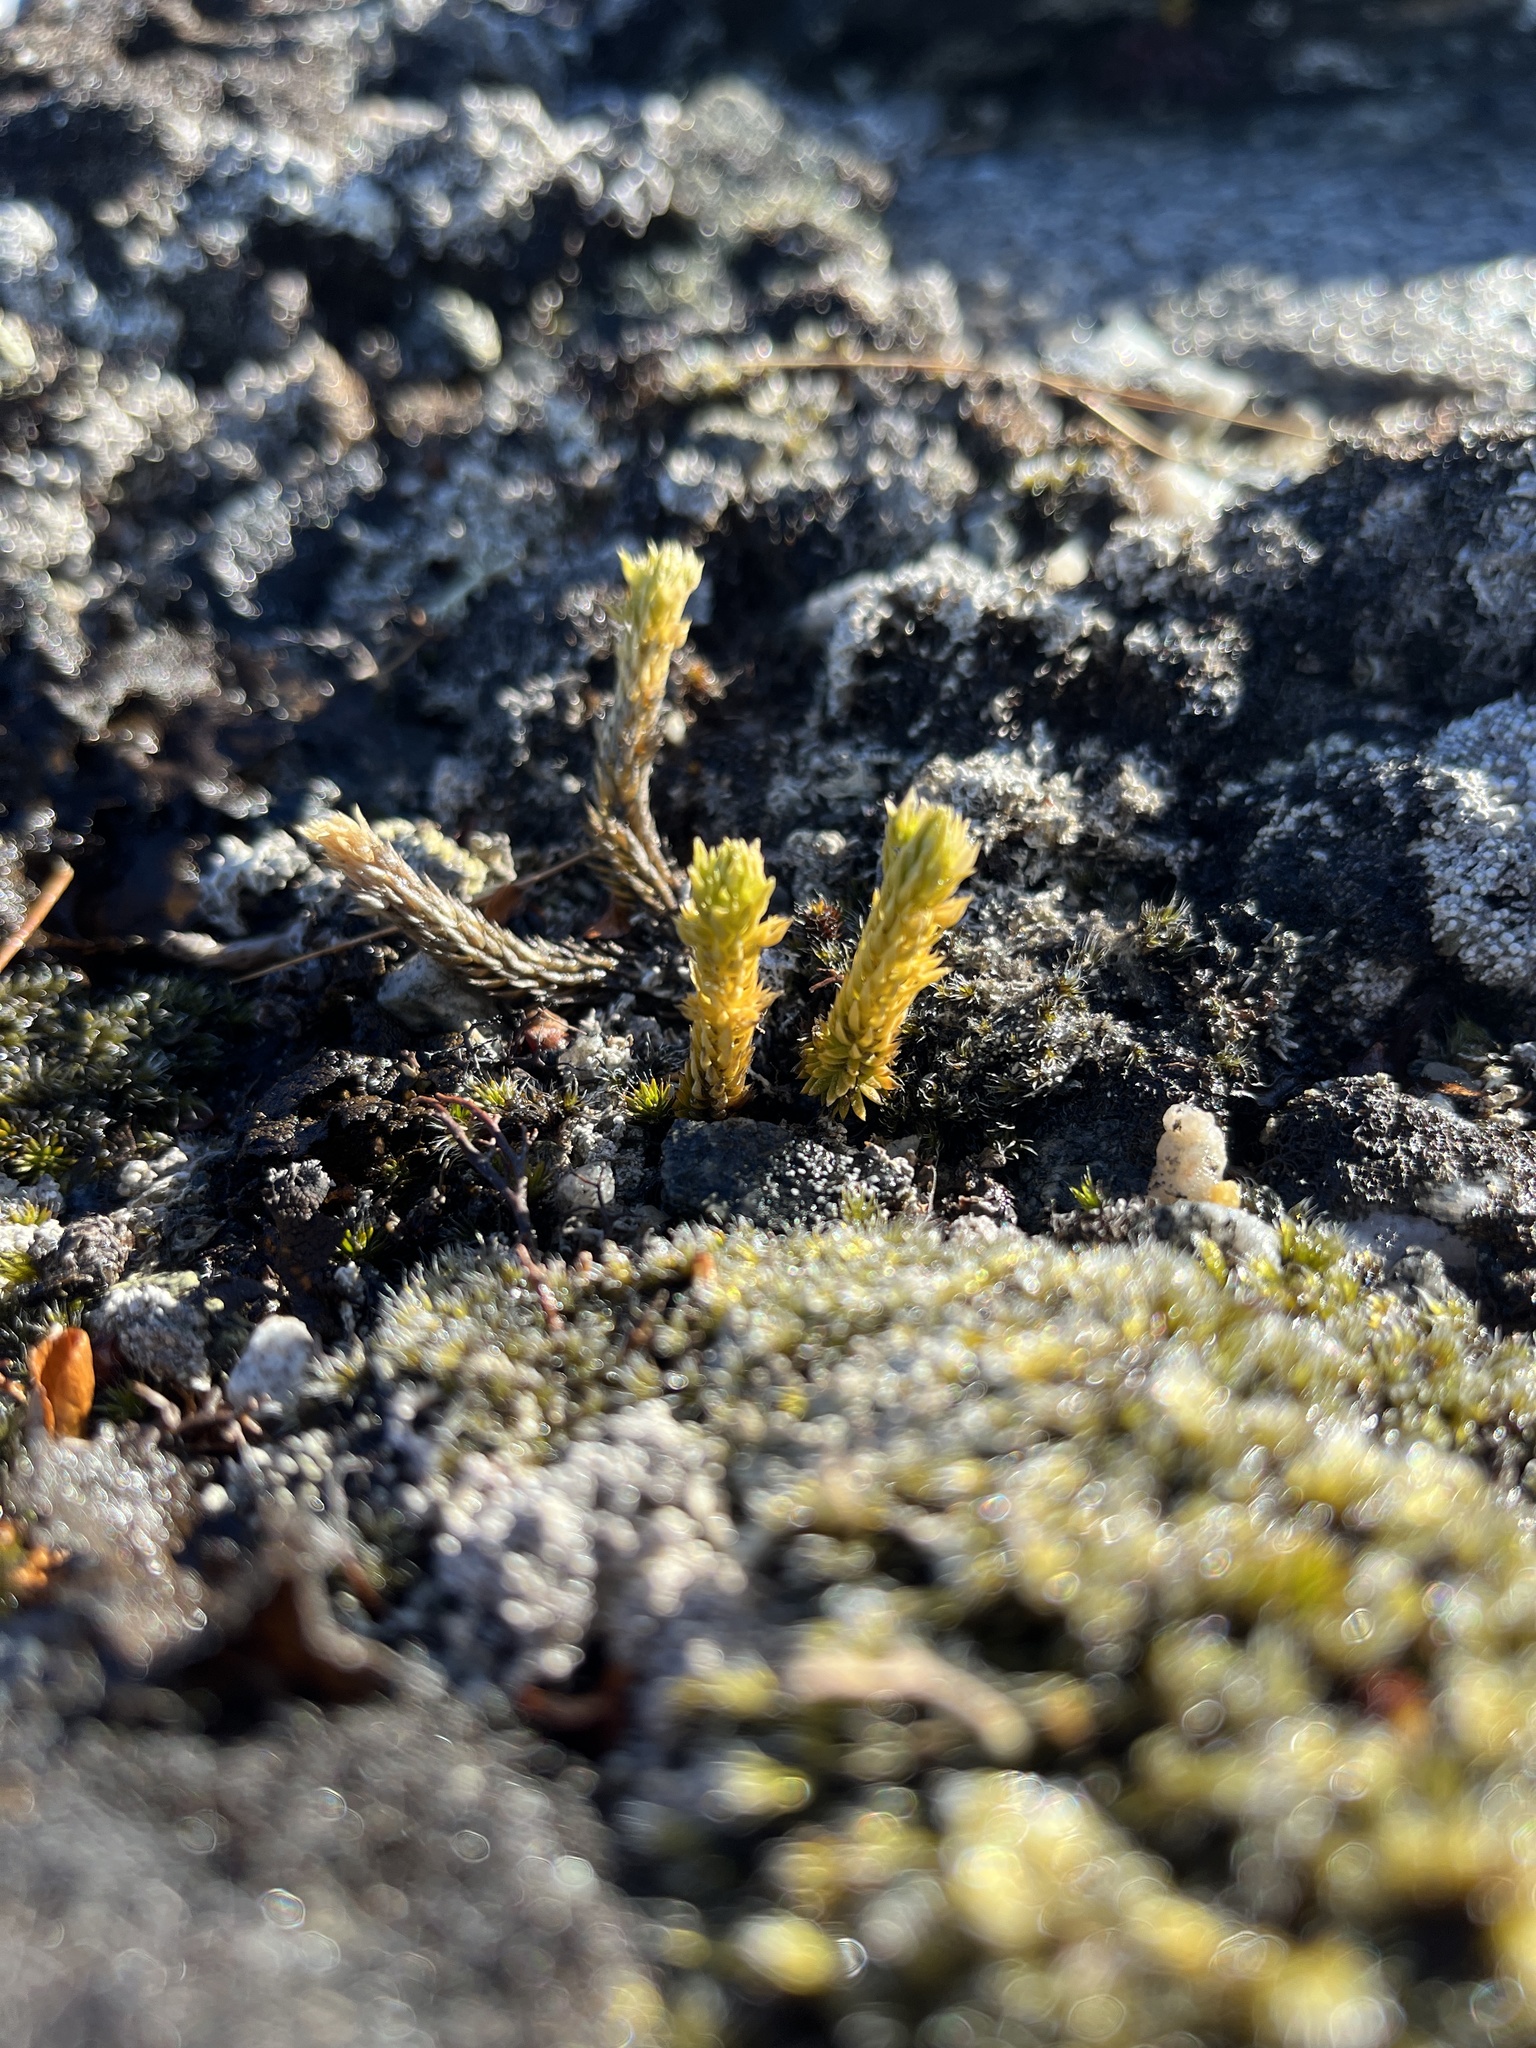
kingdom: Plantae
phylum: Tracheophyta
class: Lycopodiopsida
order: Lycopodiales
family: Lycopodiaceae
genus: Huperzia
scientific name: Huperzia selago
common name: Northern firmoss
